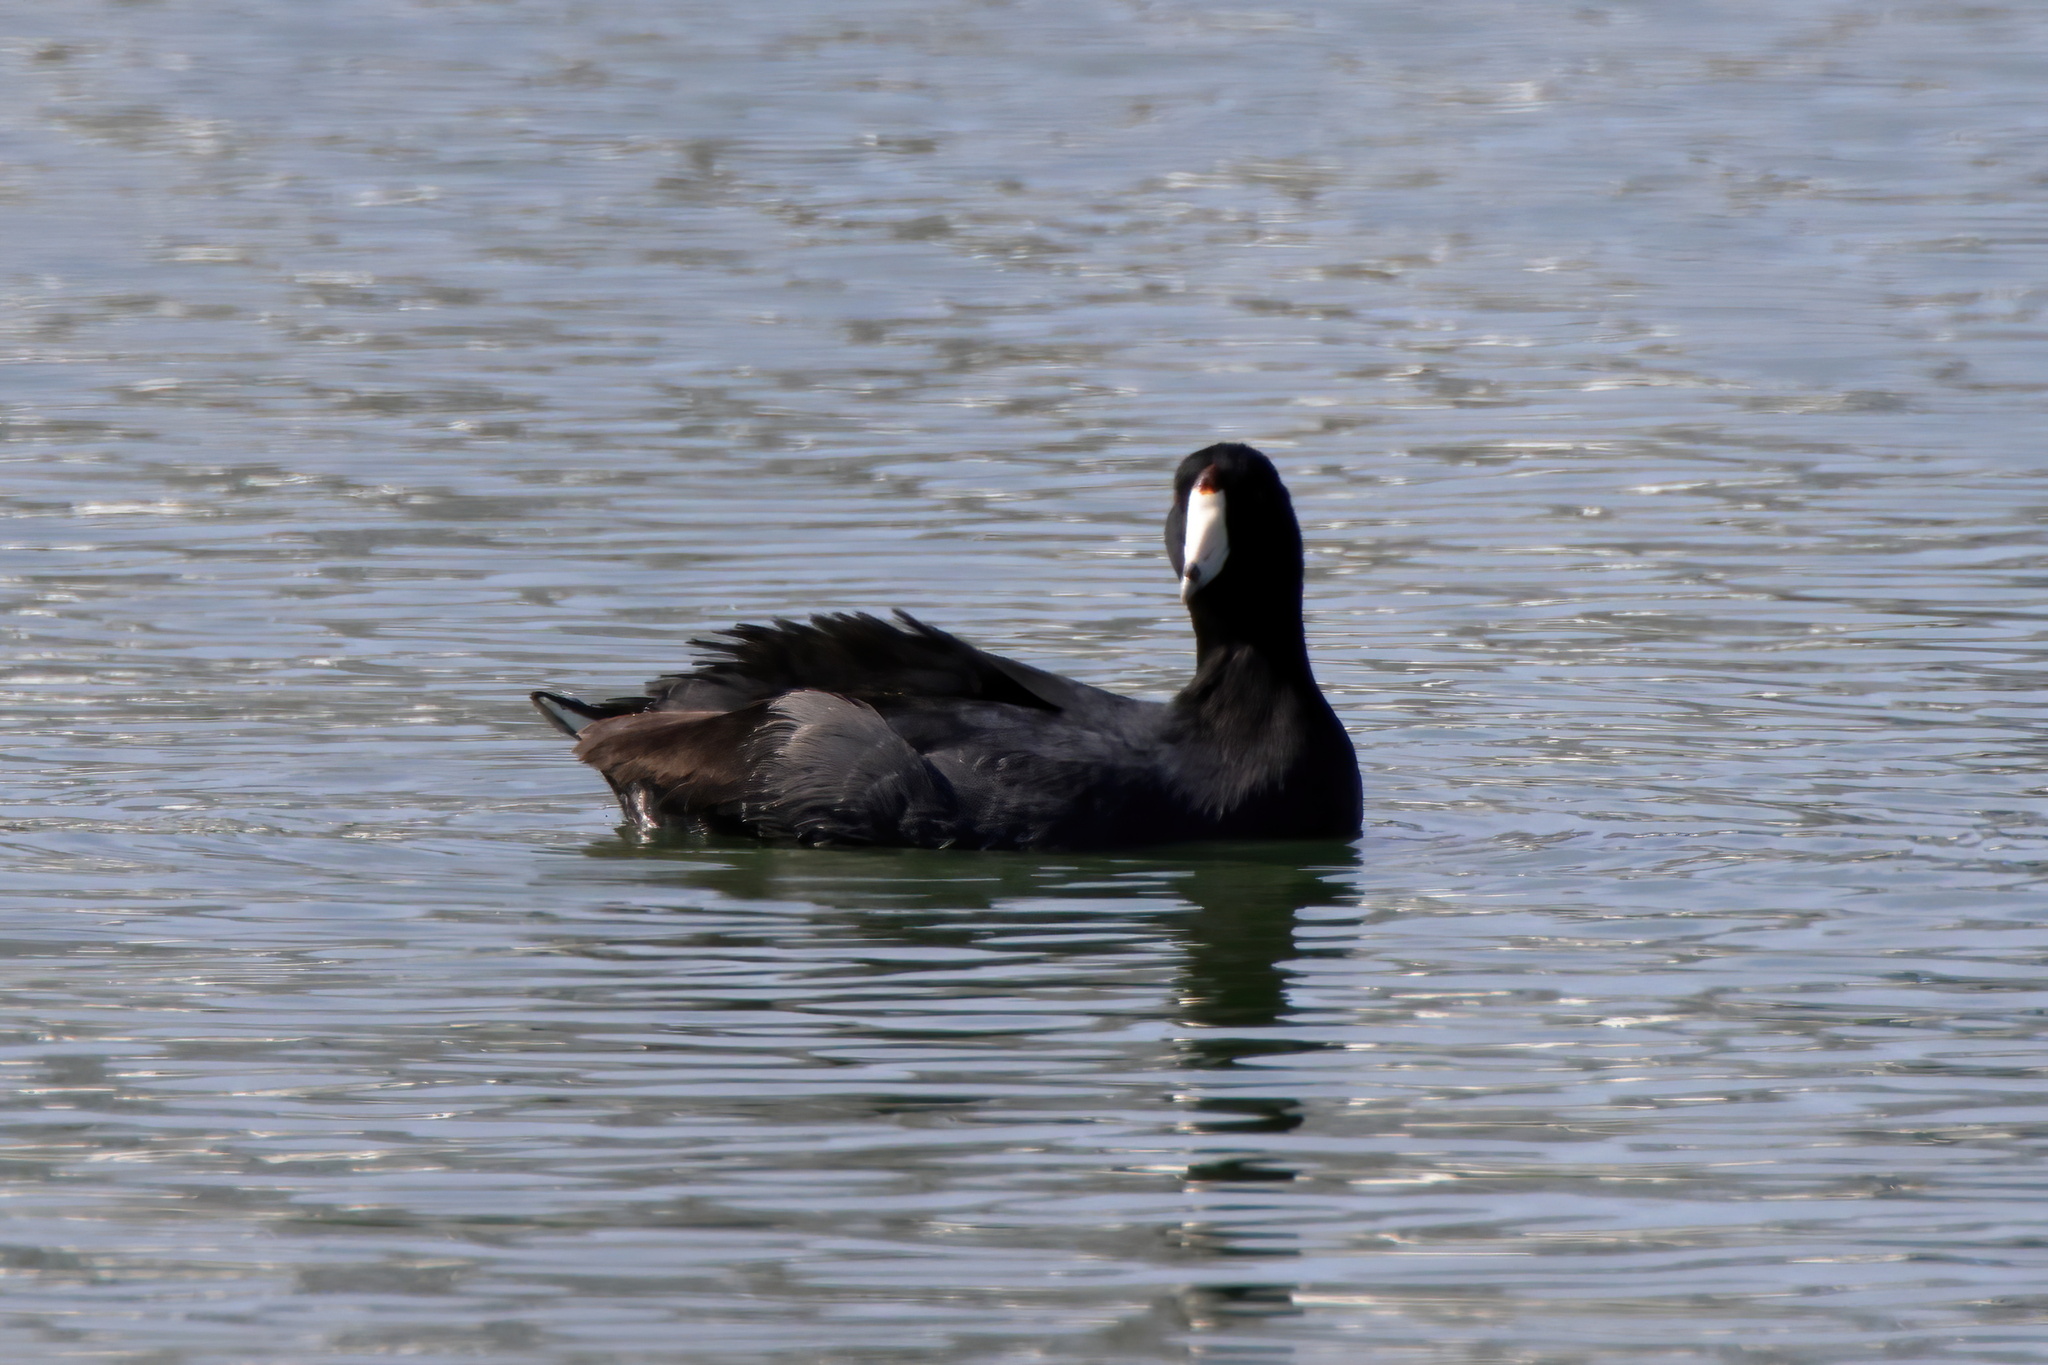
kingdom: Animalia
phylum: Chordata
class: Aves
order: Gruiformes
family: Rallidae
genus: Fulica
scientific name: Fulica americana
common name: American coot
